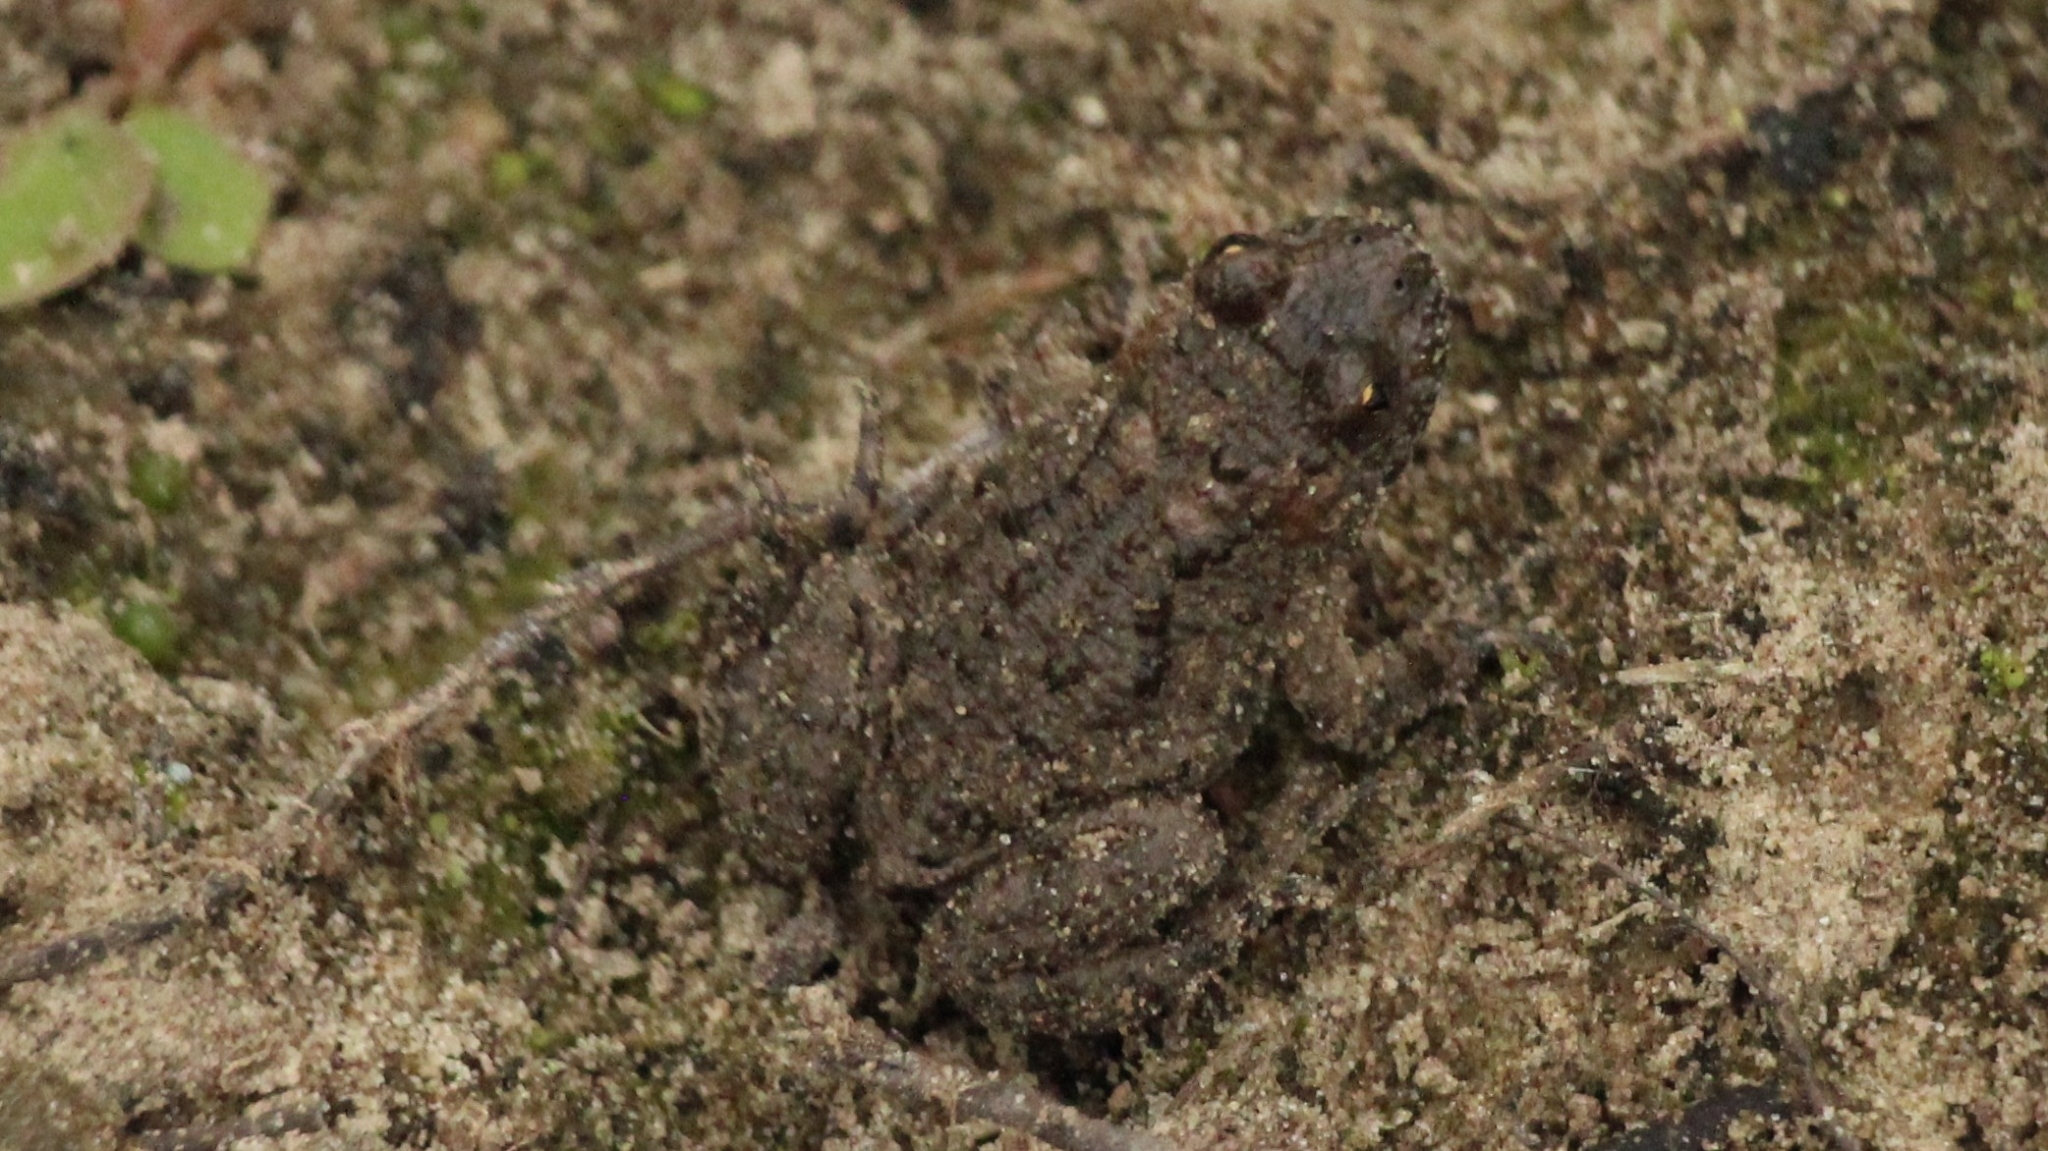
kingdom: Animalia
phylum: Chordata
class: Amphibia
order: Anura
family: Bufonidae
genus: Bufo
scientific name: Bufo bufo
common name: Common toad
